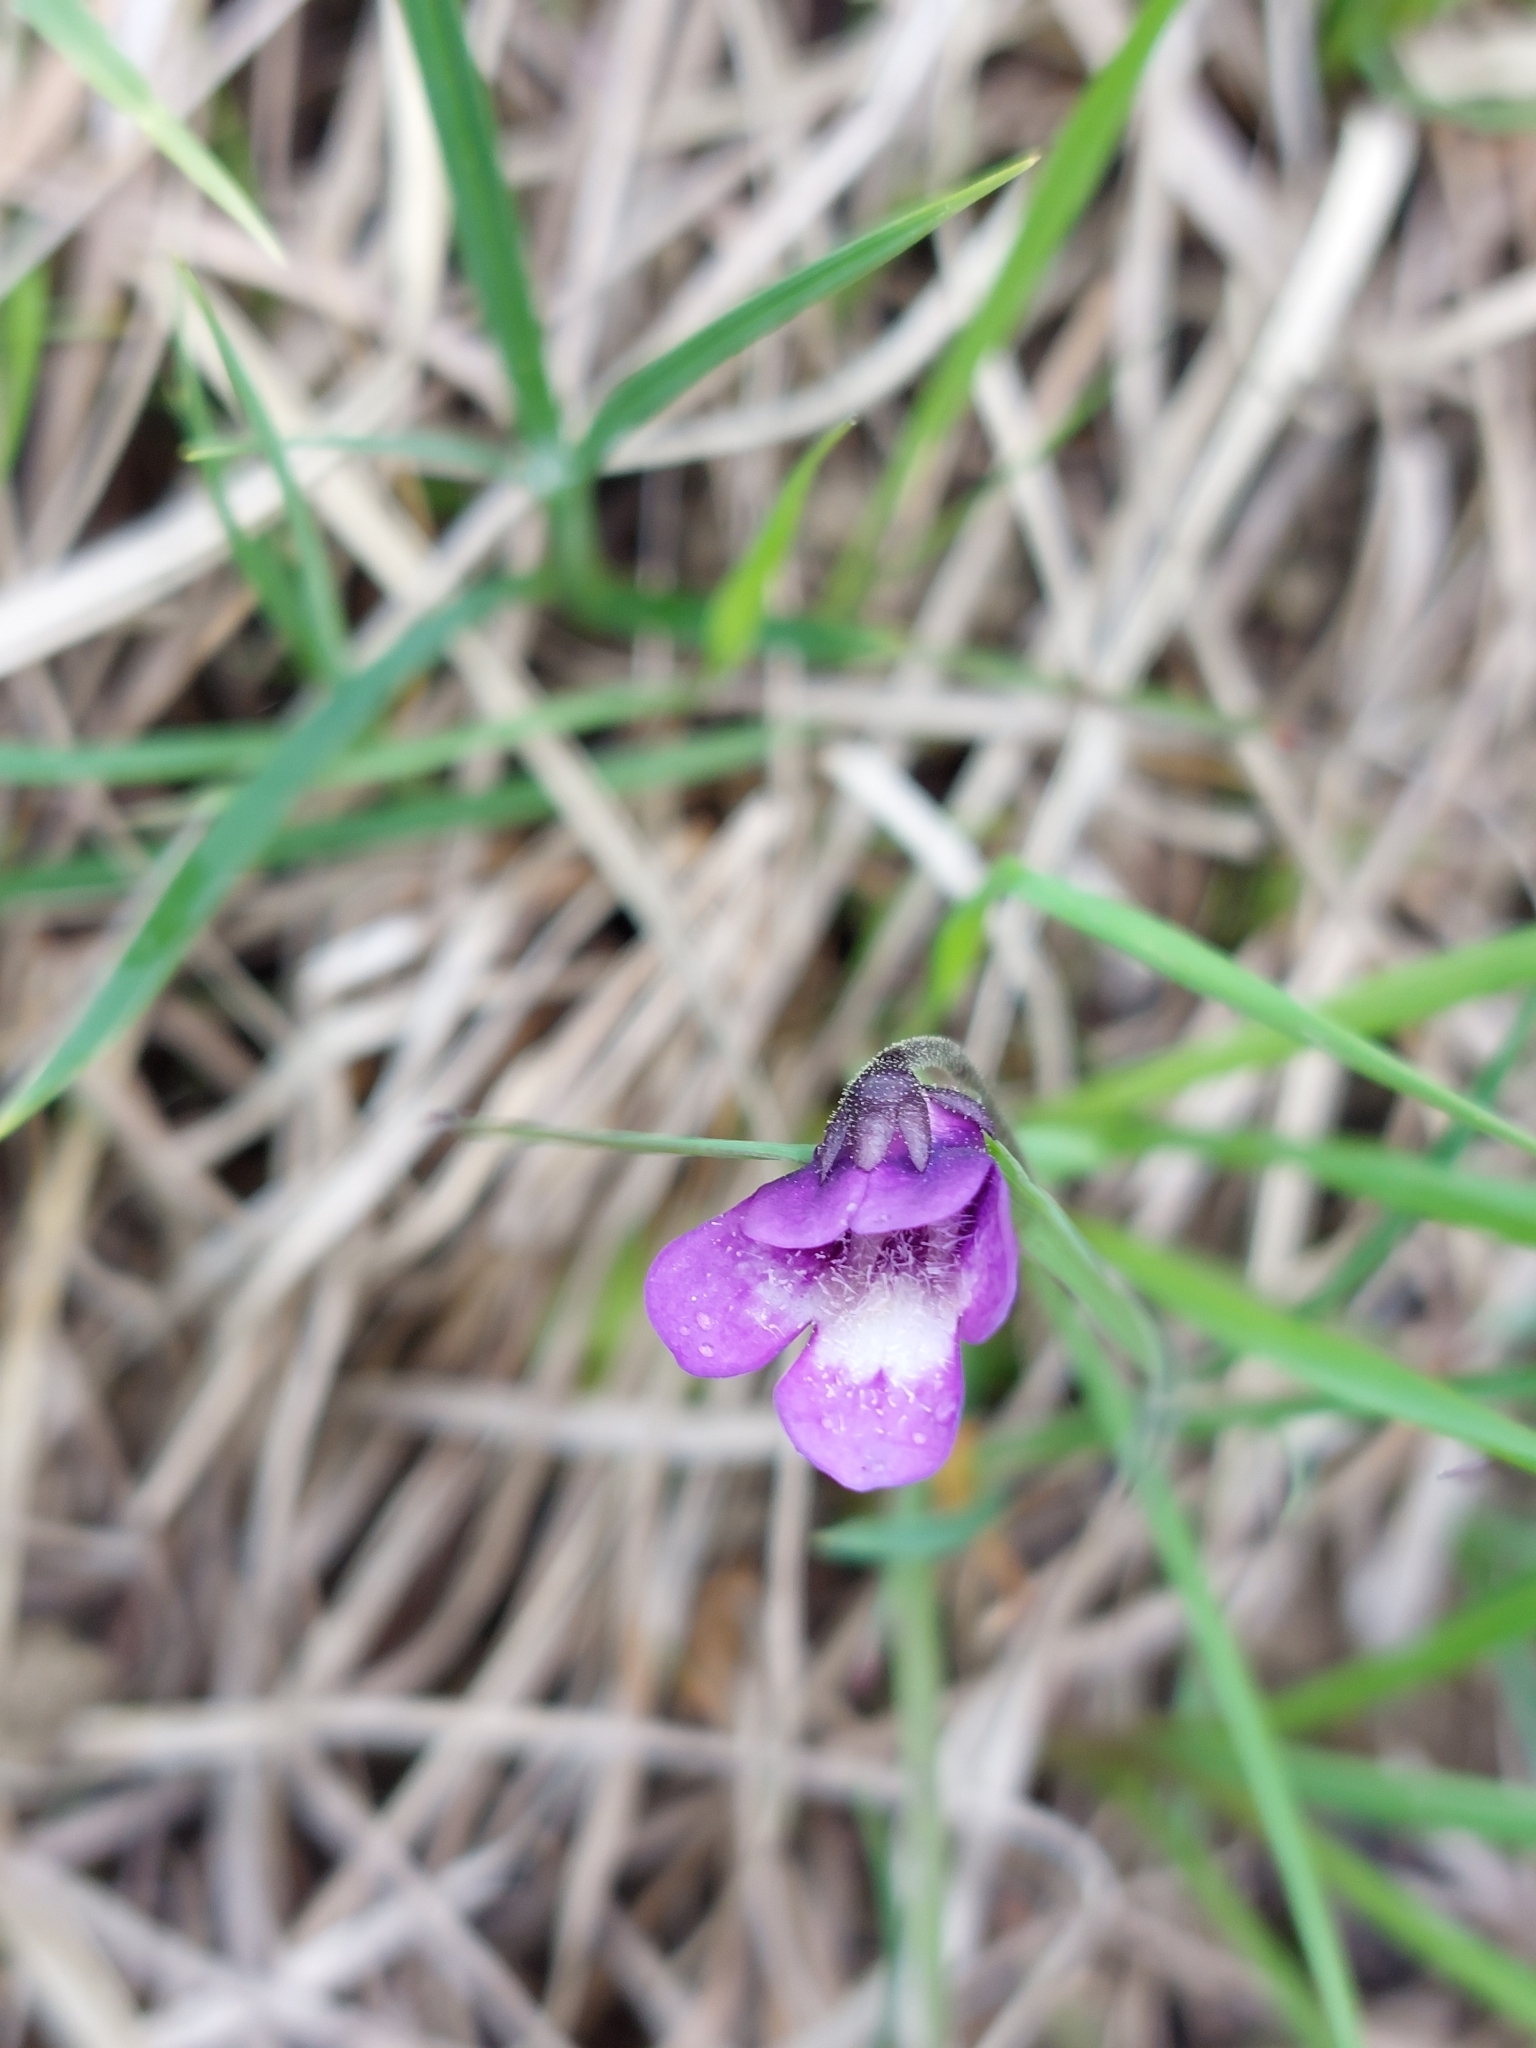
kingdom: Plantae
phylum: Tracheophyta
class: Magnoliopsida
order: Lamiales
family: Lentibulariaceae
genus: Pinguicula
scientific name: Pinguicula vulgaris
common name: Common butterwort
